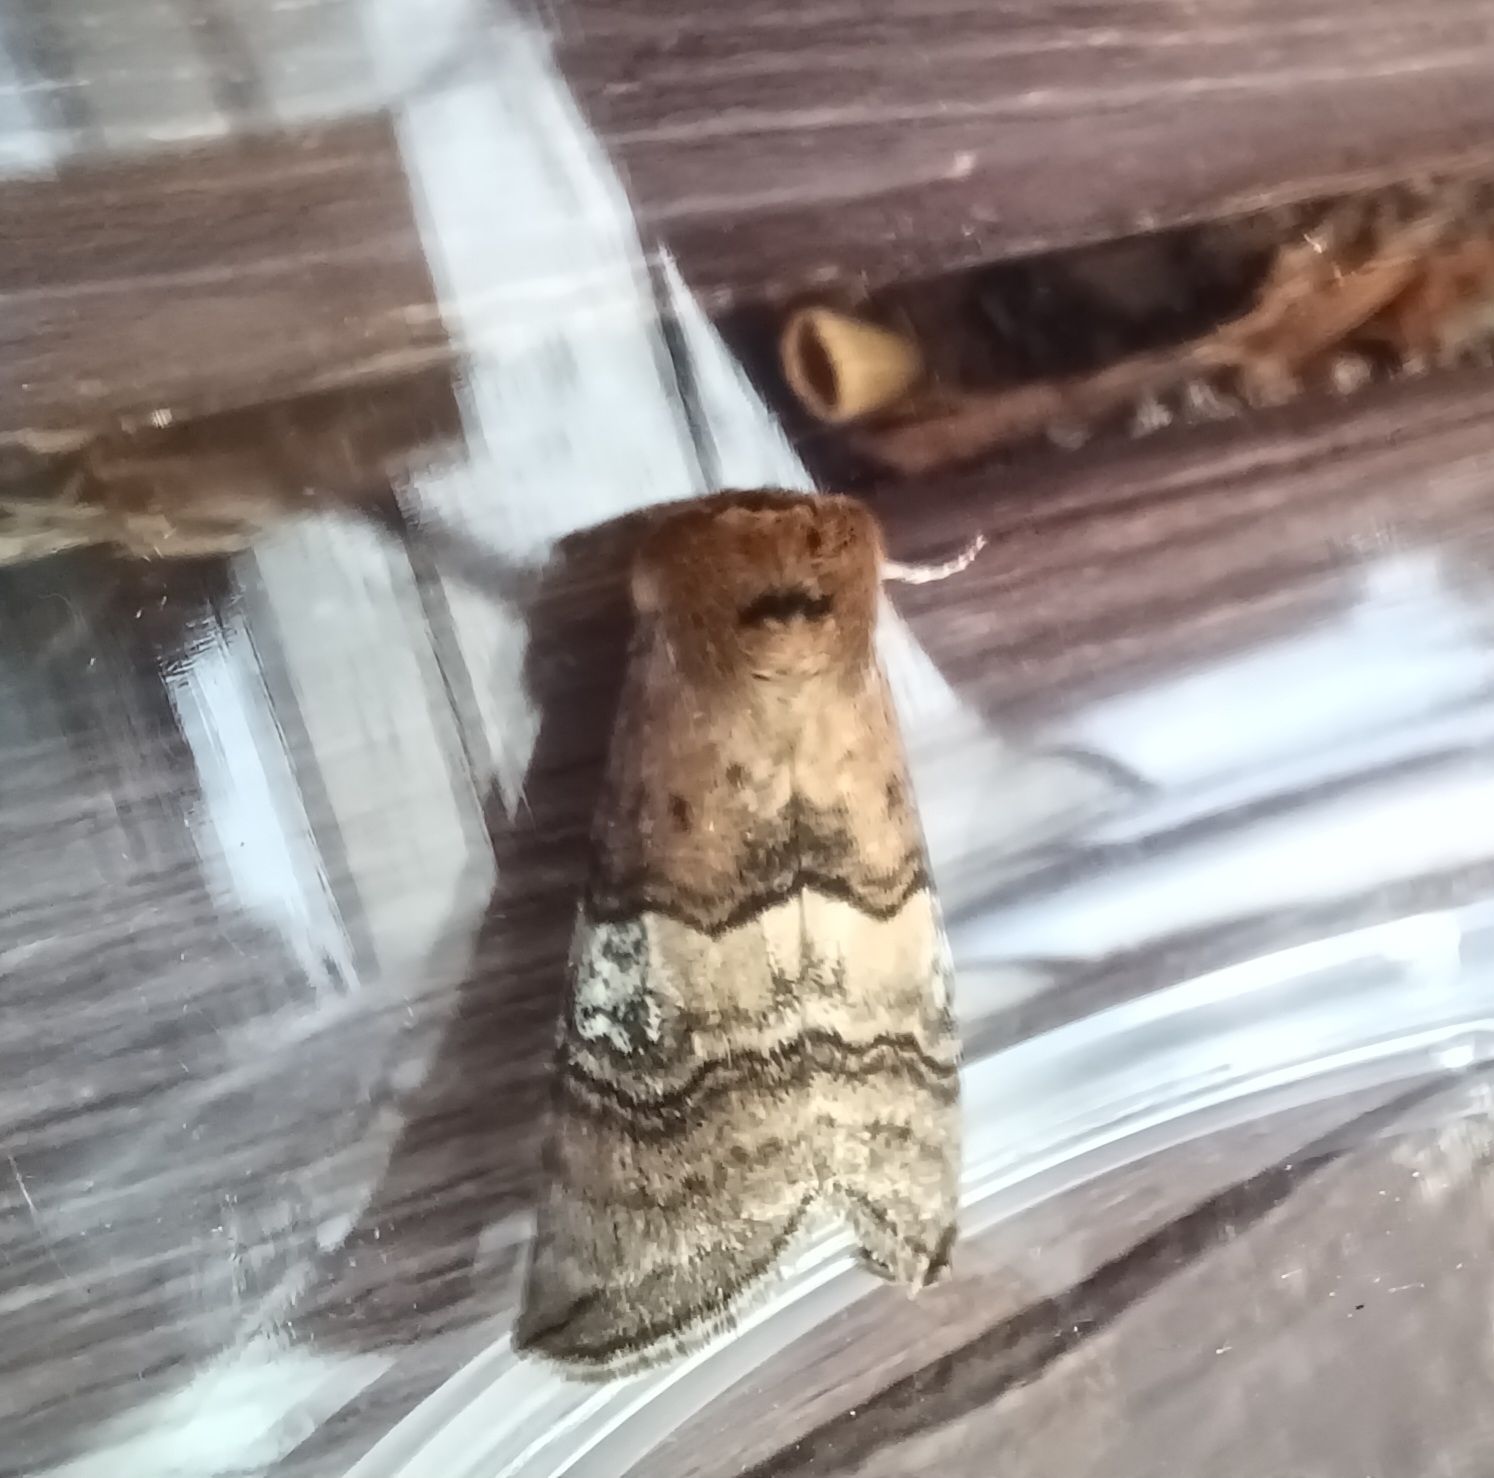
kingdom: Animalia
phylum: Arthropoda
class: Insecta
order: Lepidoptera
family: Drepanidae
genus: Tethea
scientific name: Tethea ocularis
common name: Figure of eighty
